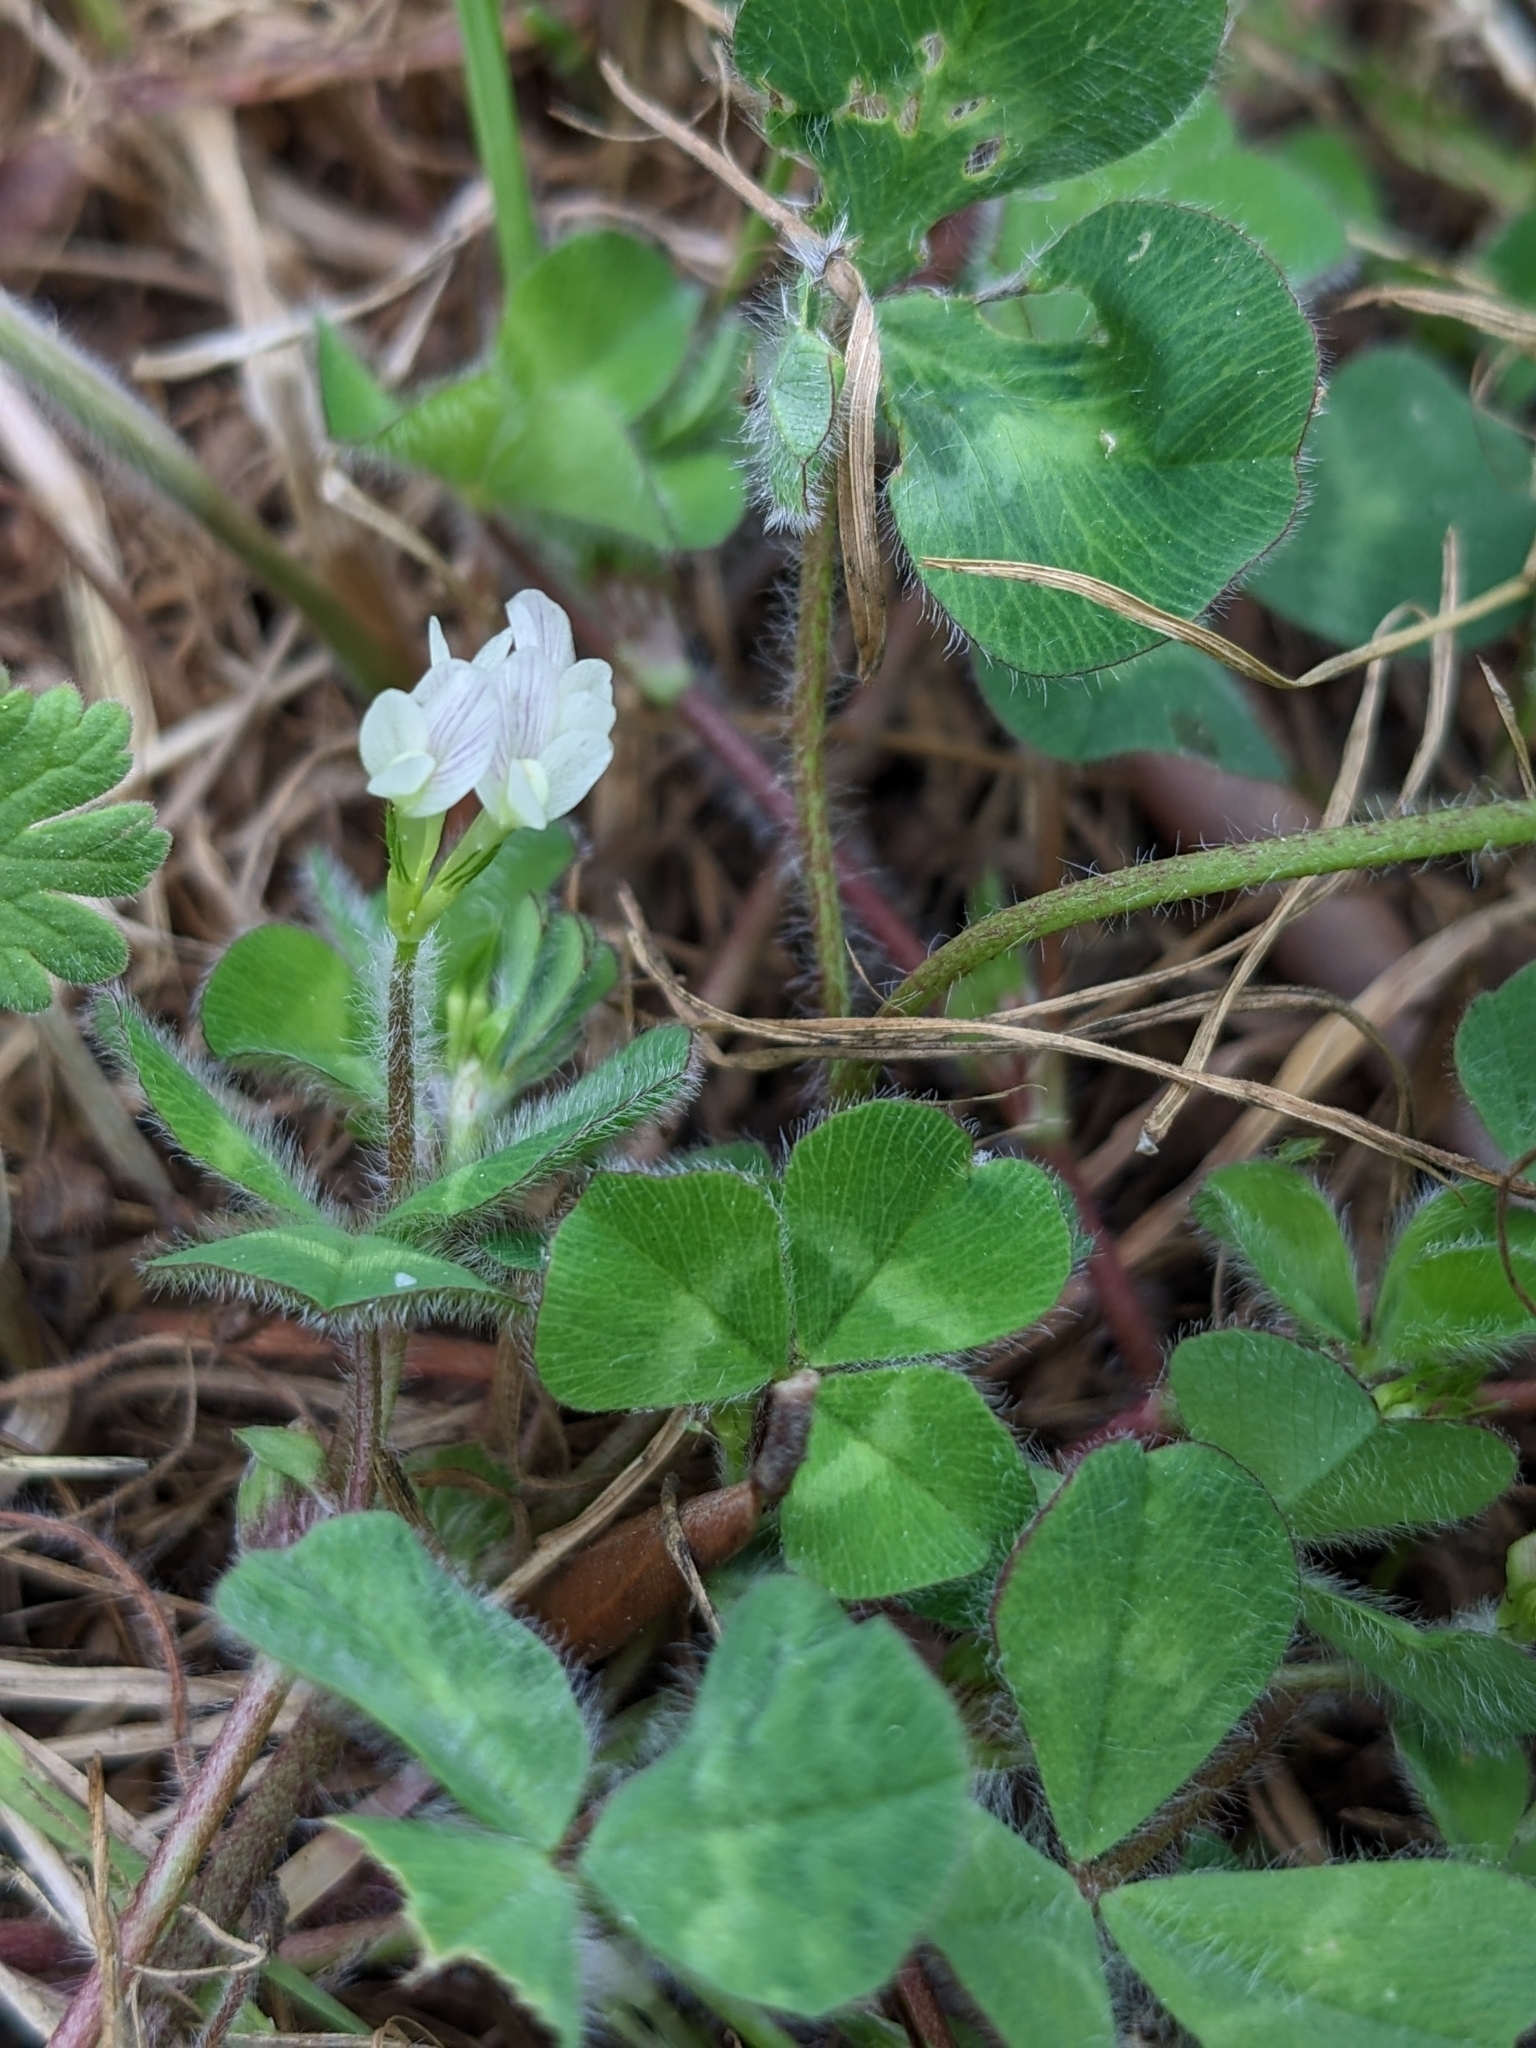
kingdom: Plantae
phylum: Tracheophyta
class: Magnoliopsida
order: Fabales
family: Fabaceae
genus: Trifolium
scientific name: Trifolium subterraneum
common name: Subterranean clover
